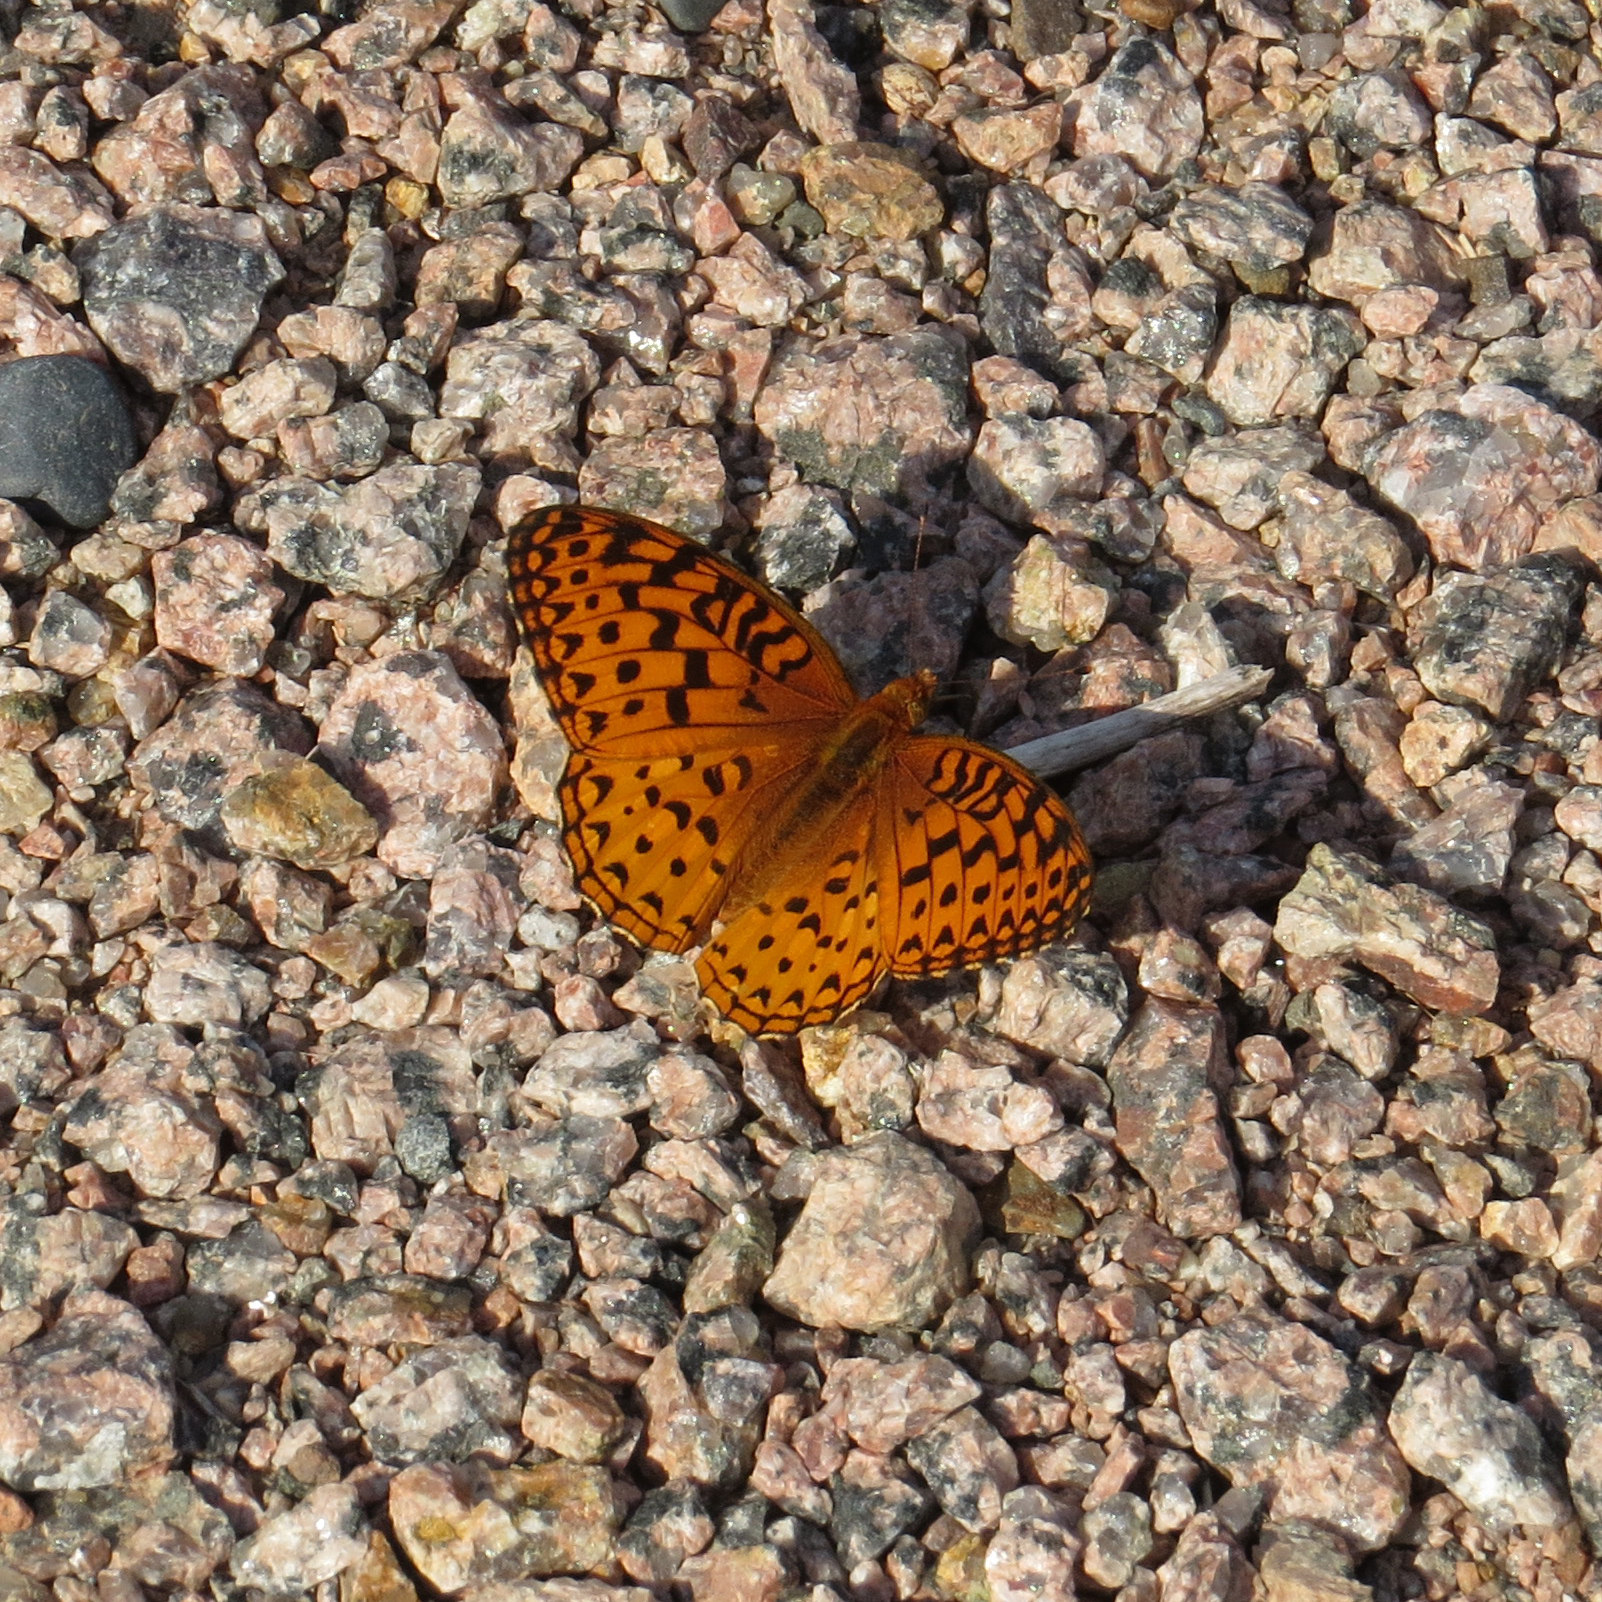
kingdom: Animalia
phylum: Arthropoda
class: Insecta
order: Lepidoptera
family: Nymphalidae
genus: Speyeria
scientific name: Speyeria aphrodite
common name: Aphrodite friitllary
